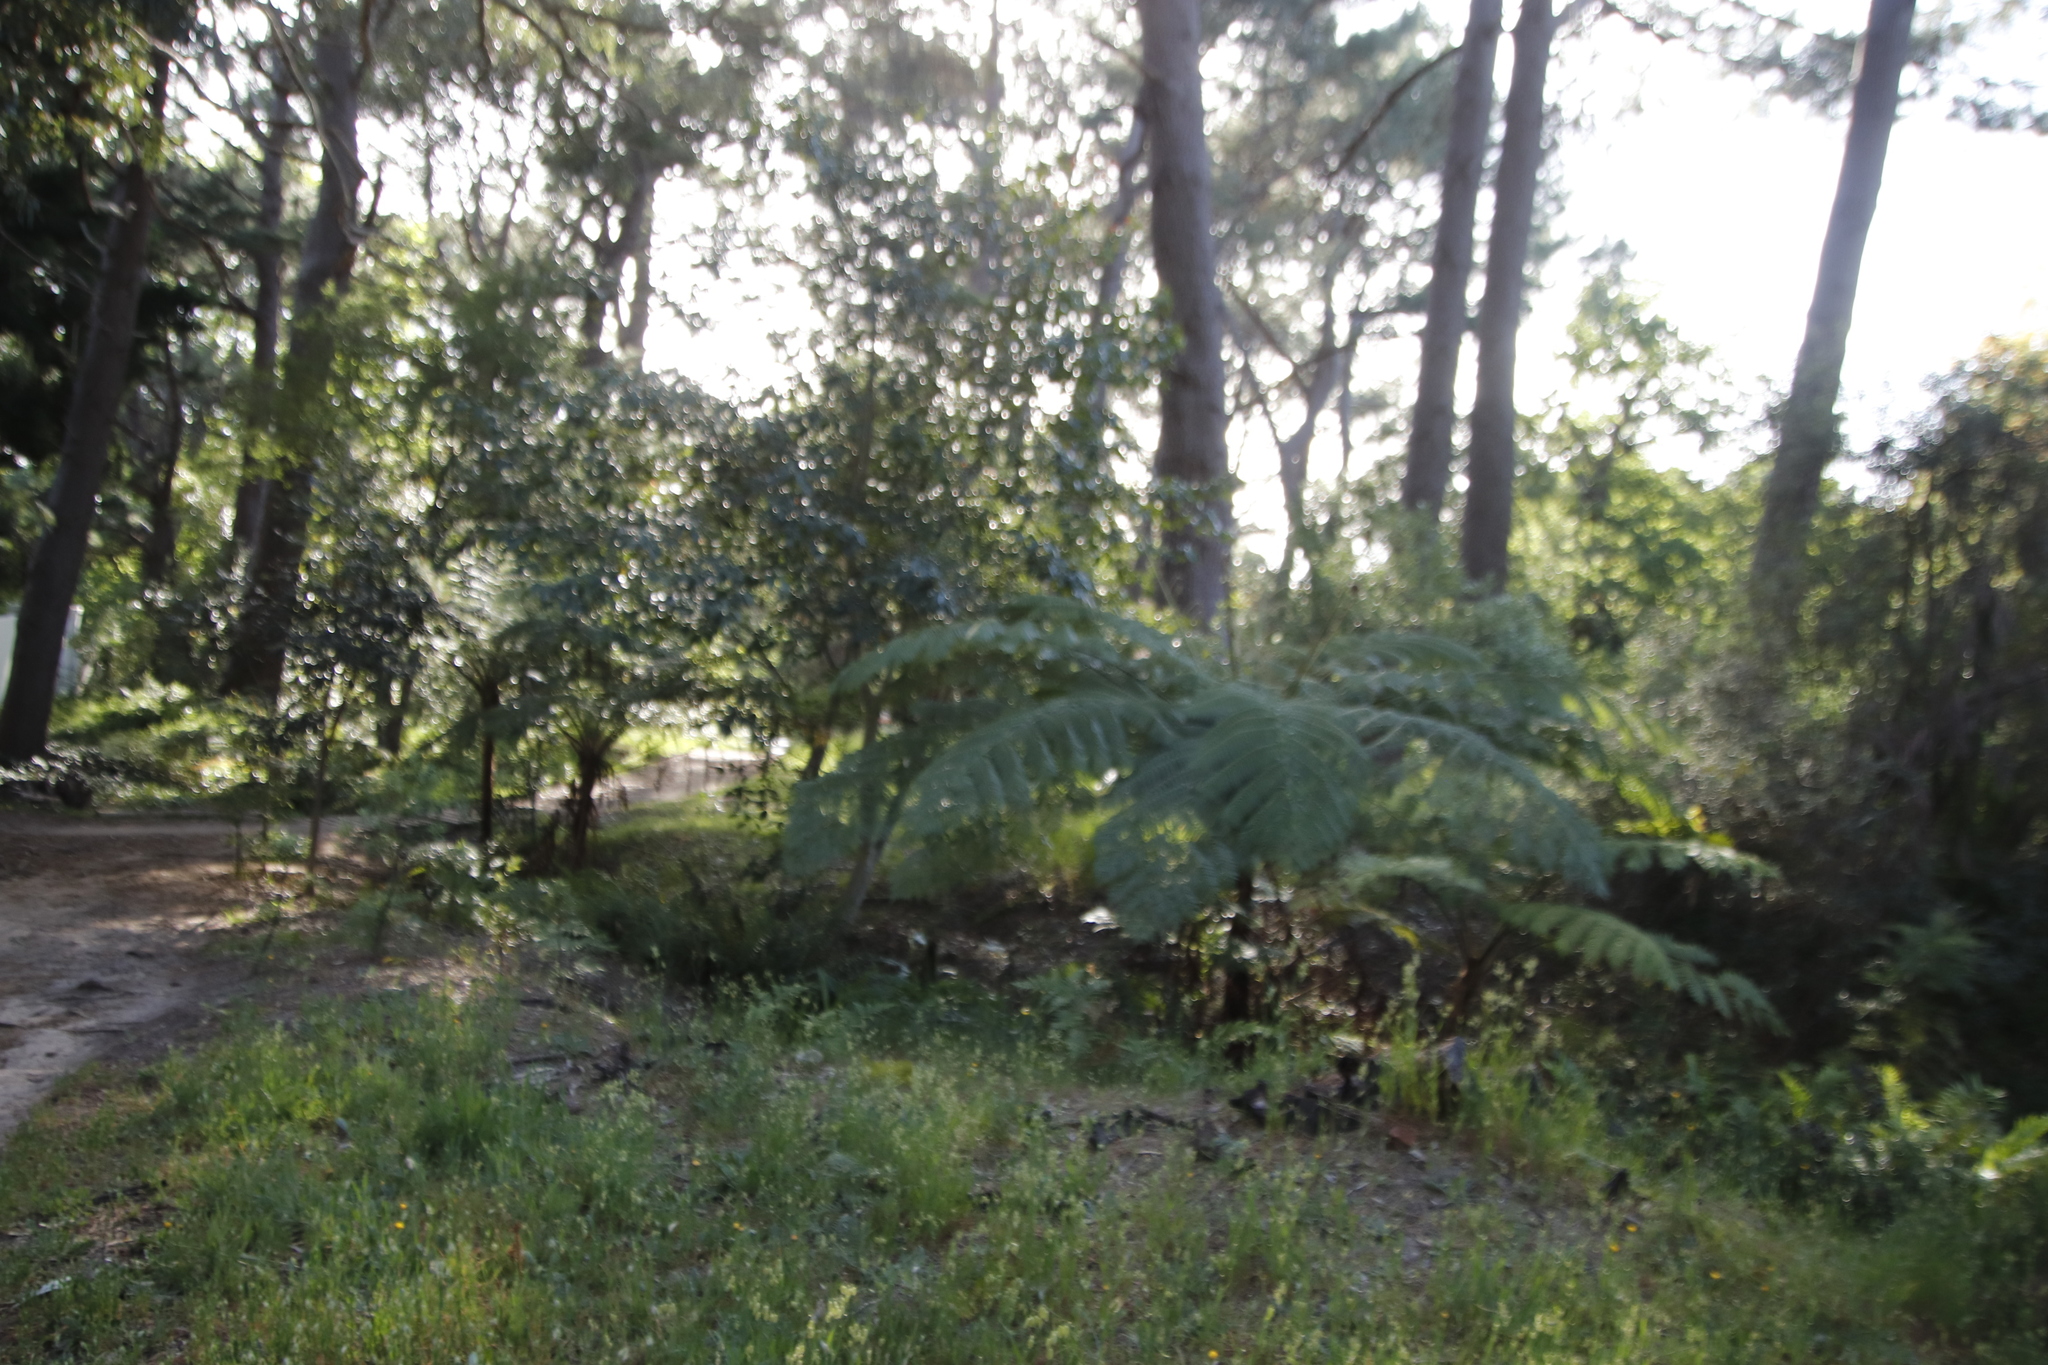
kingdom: Plantae
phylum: Tracheophyta
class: Polypodiopsida
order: Cyatheales
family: Cyatheaceae
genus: Sphaeropteris
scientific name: Sphaeropteris cooperi
